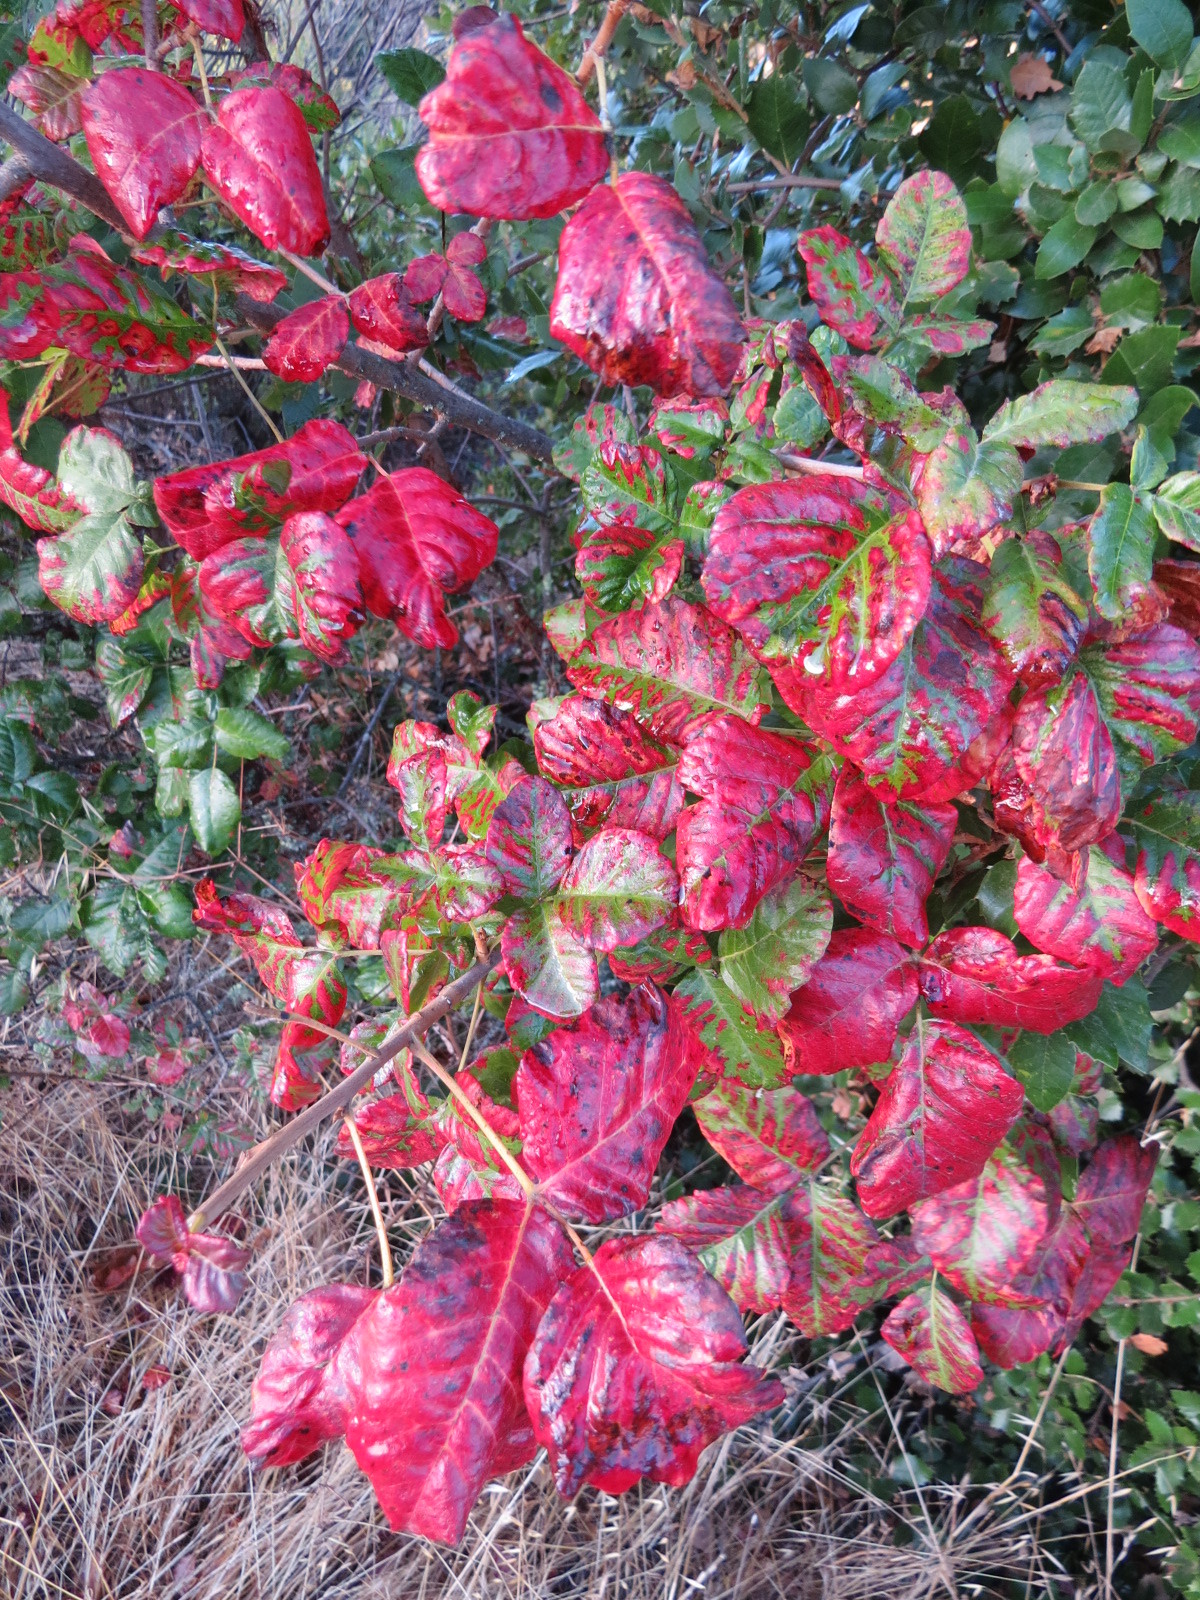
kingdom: Plantae
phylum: Tracheophyta
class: Magnoliopsida
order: Sapindales
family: Anacardiaceae
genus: Toxicodendron
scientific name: Toxicodendron diversilobum
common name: Pacific poison-oak
